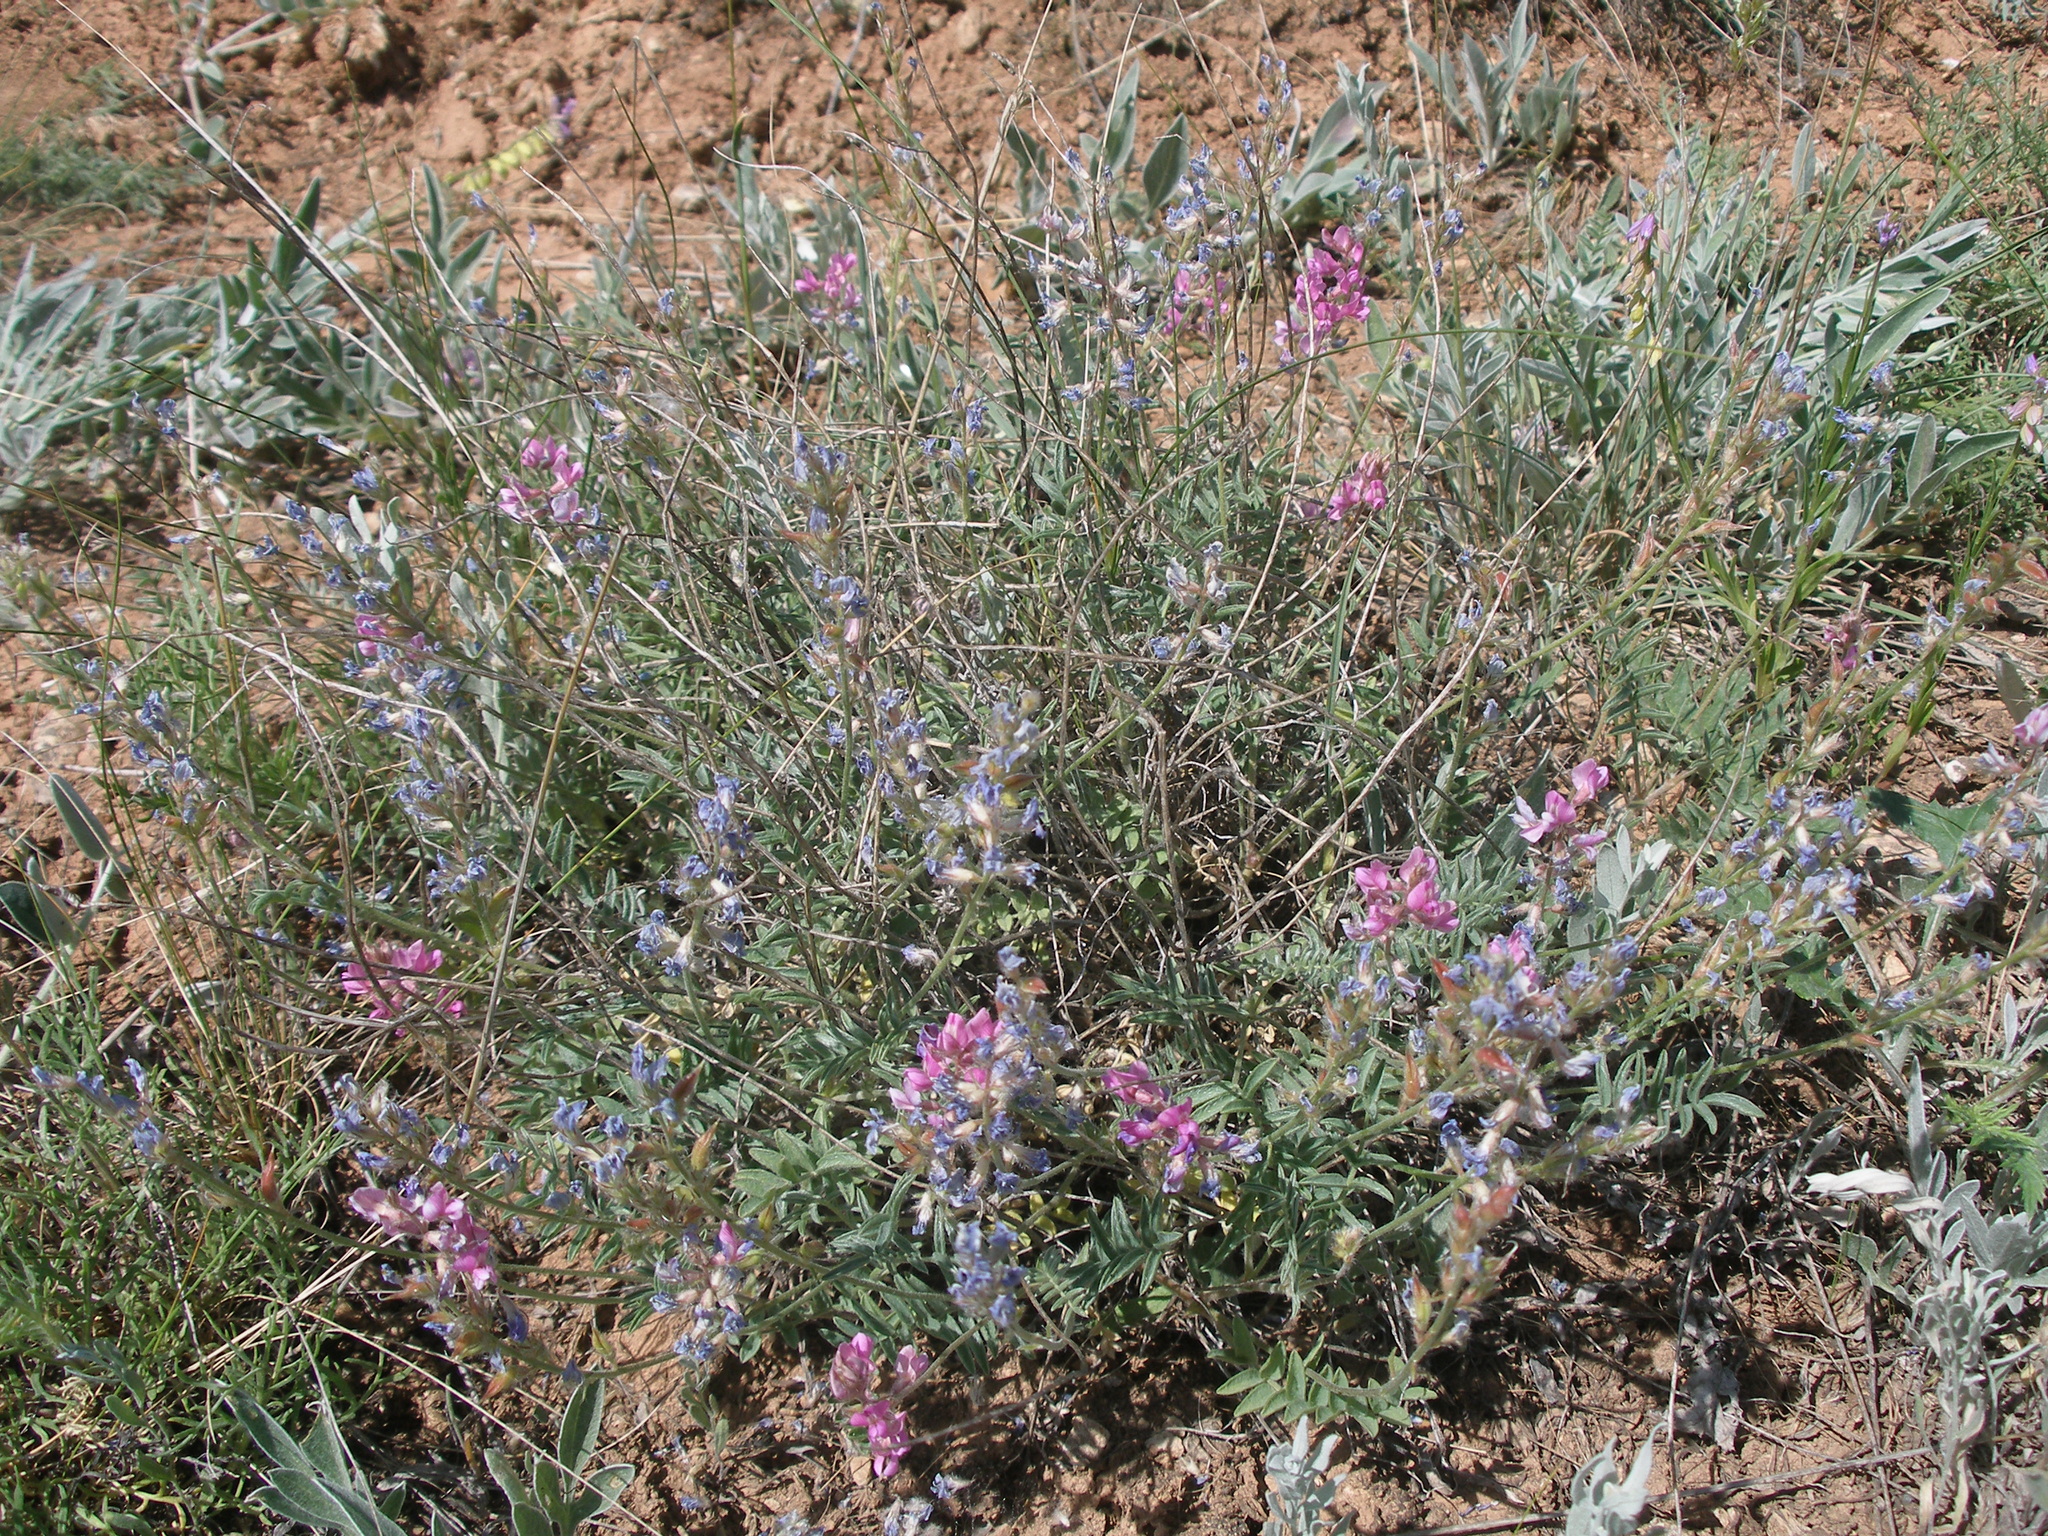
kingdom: Plantae
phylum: Tracheophyta
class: Magnoliopsida
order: Fabales
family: Fabaceae
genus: Oxytropis
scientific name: Oxytropis floribunda
